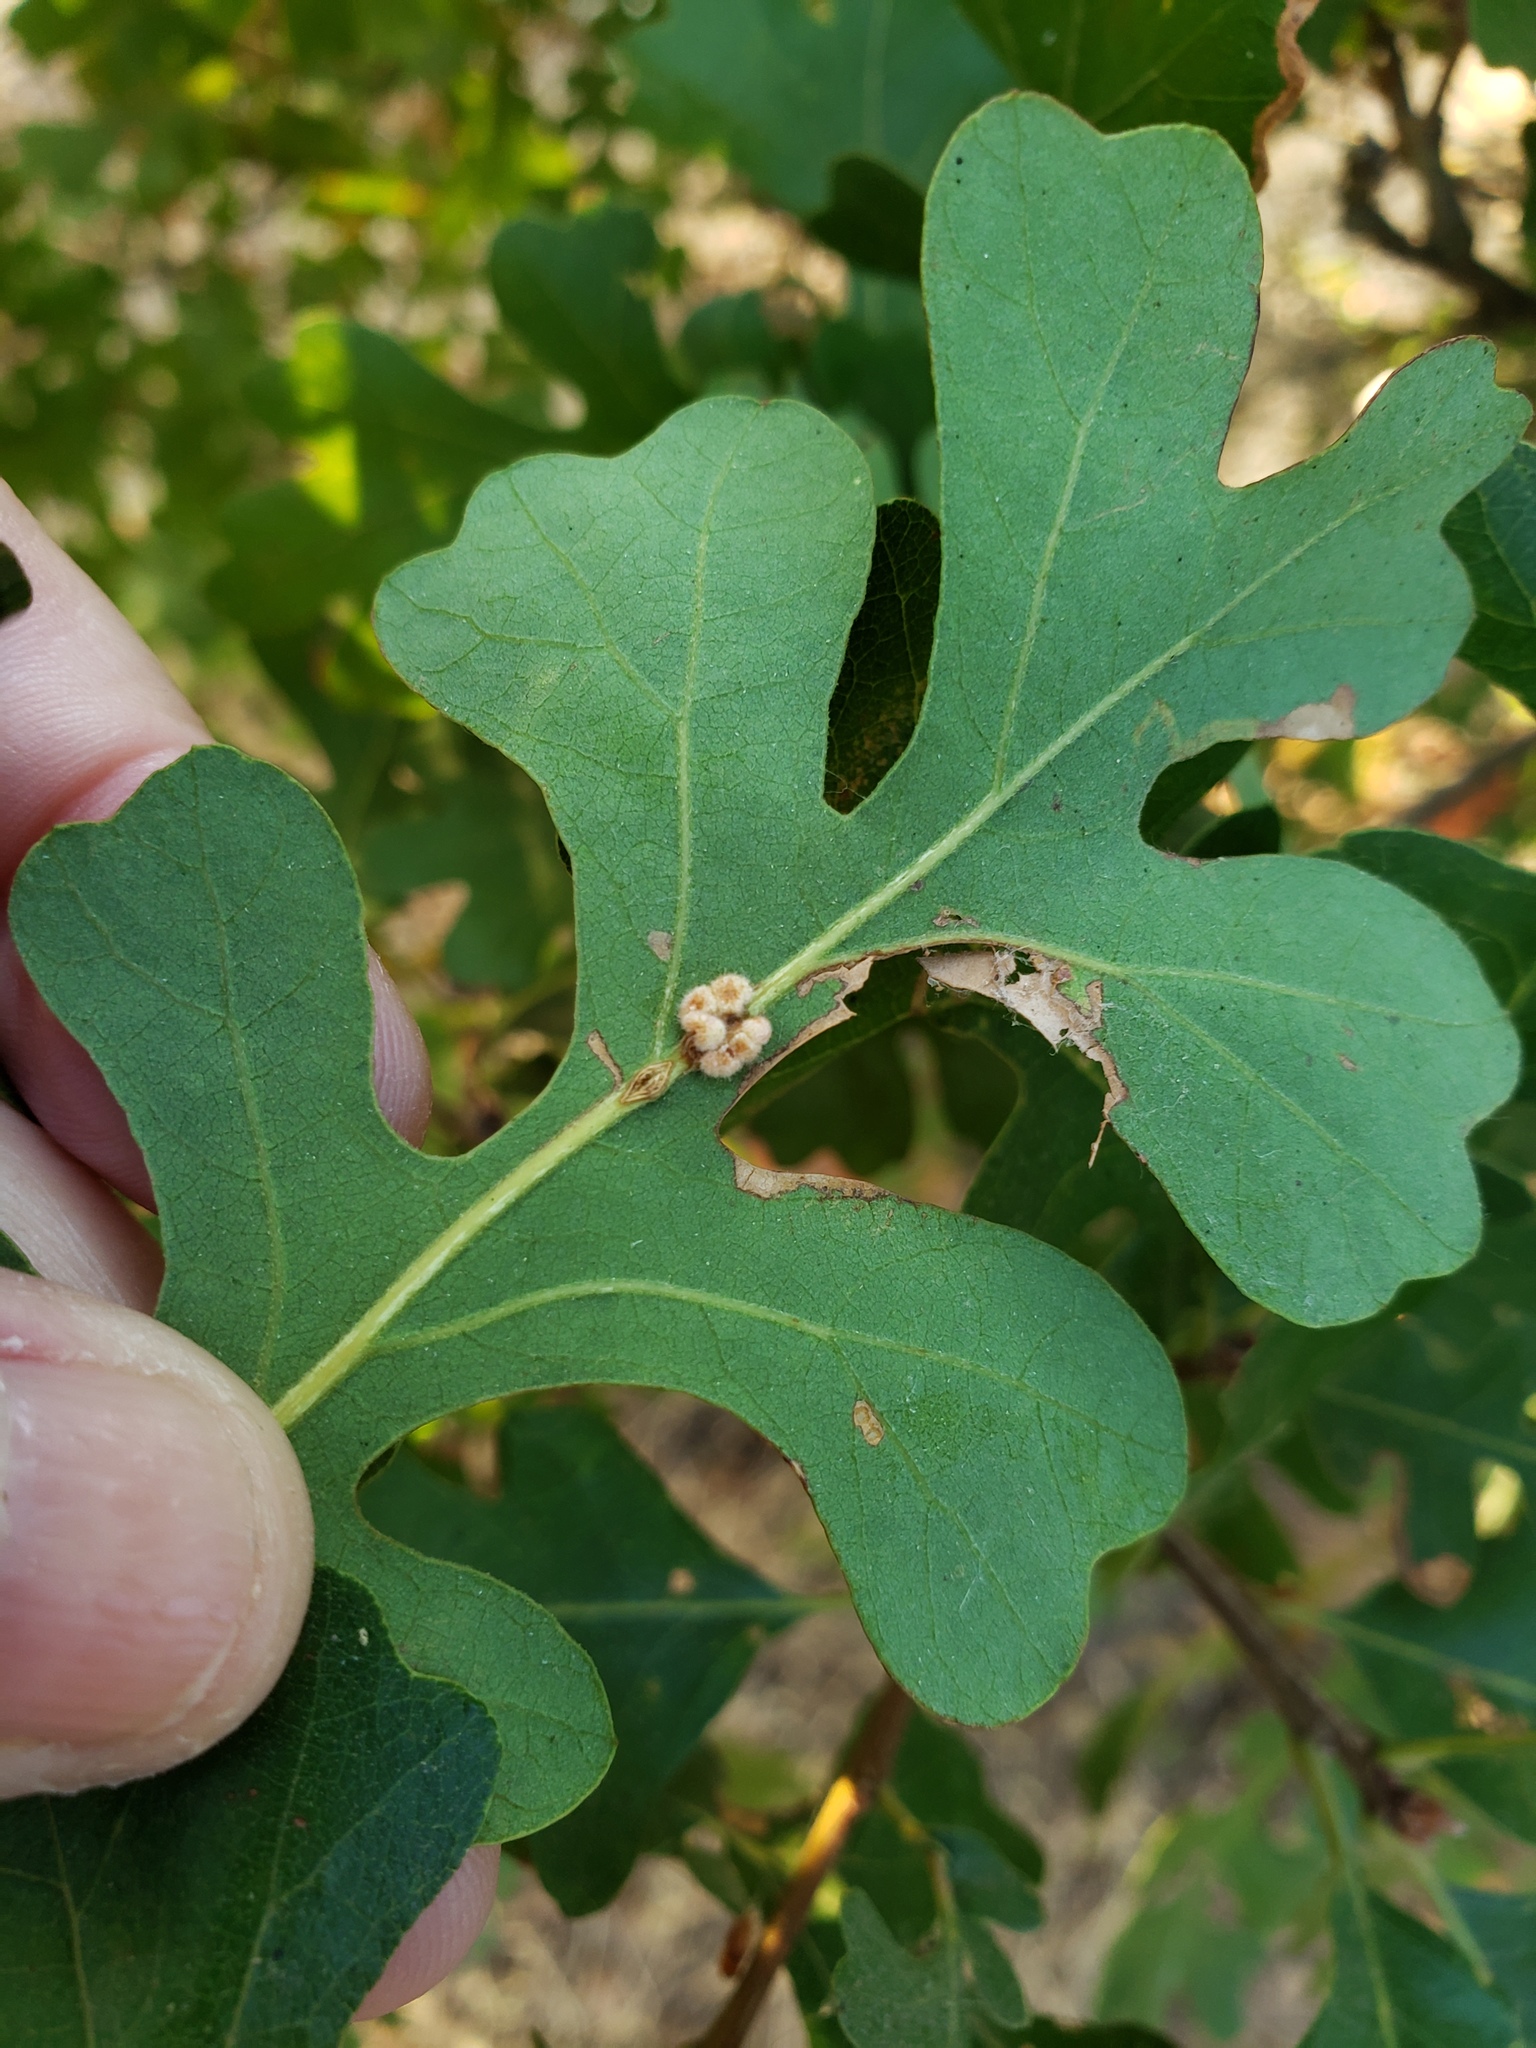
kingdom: Animalia
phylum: Arthropoda
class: Insecta
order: Hymenoptera
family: Cynipidae
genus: Andricus
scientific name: Andricus
